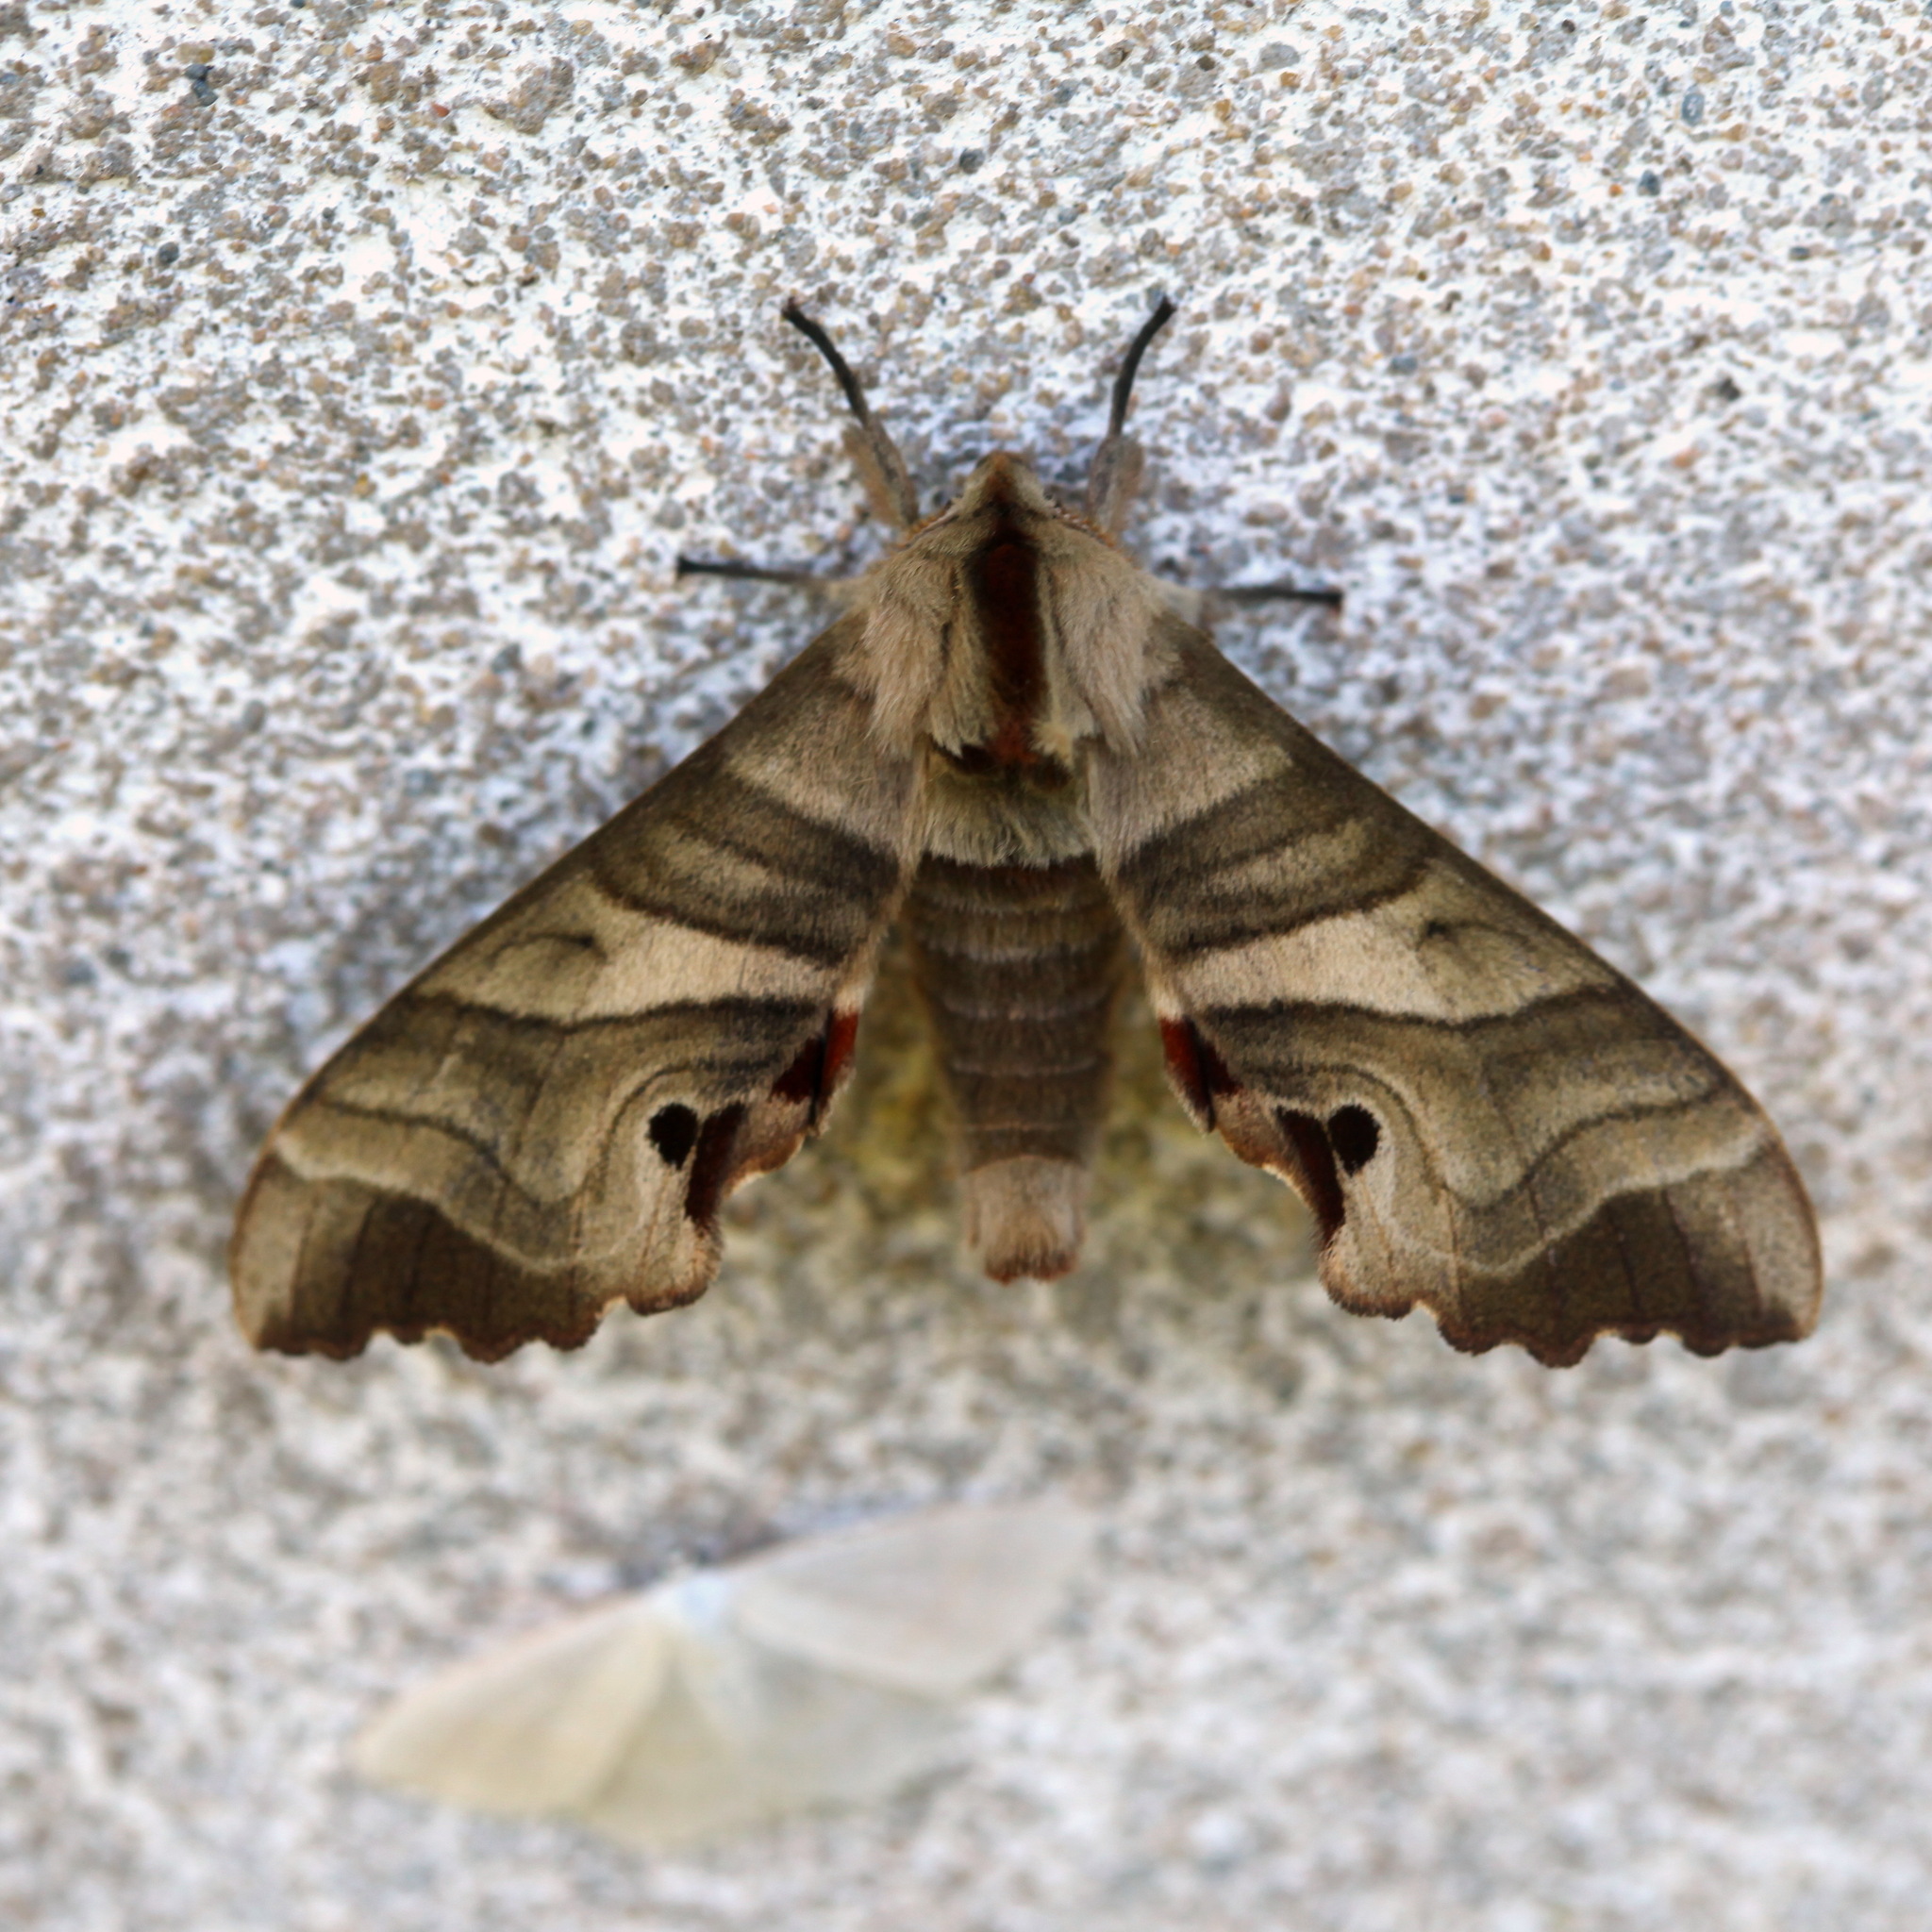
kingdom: Animalia
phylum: Arthropoda
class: Insecta
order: Lepidoptera
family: Sphingidae
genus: Marumba
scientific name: Marumba jankowskii
